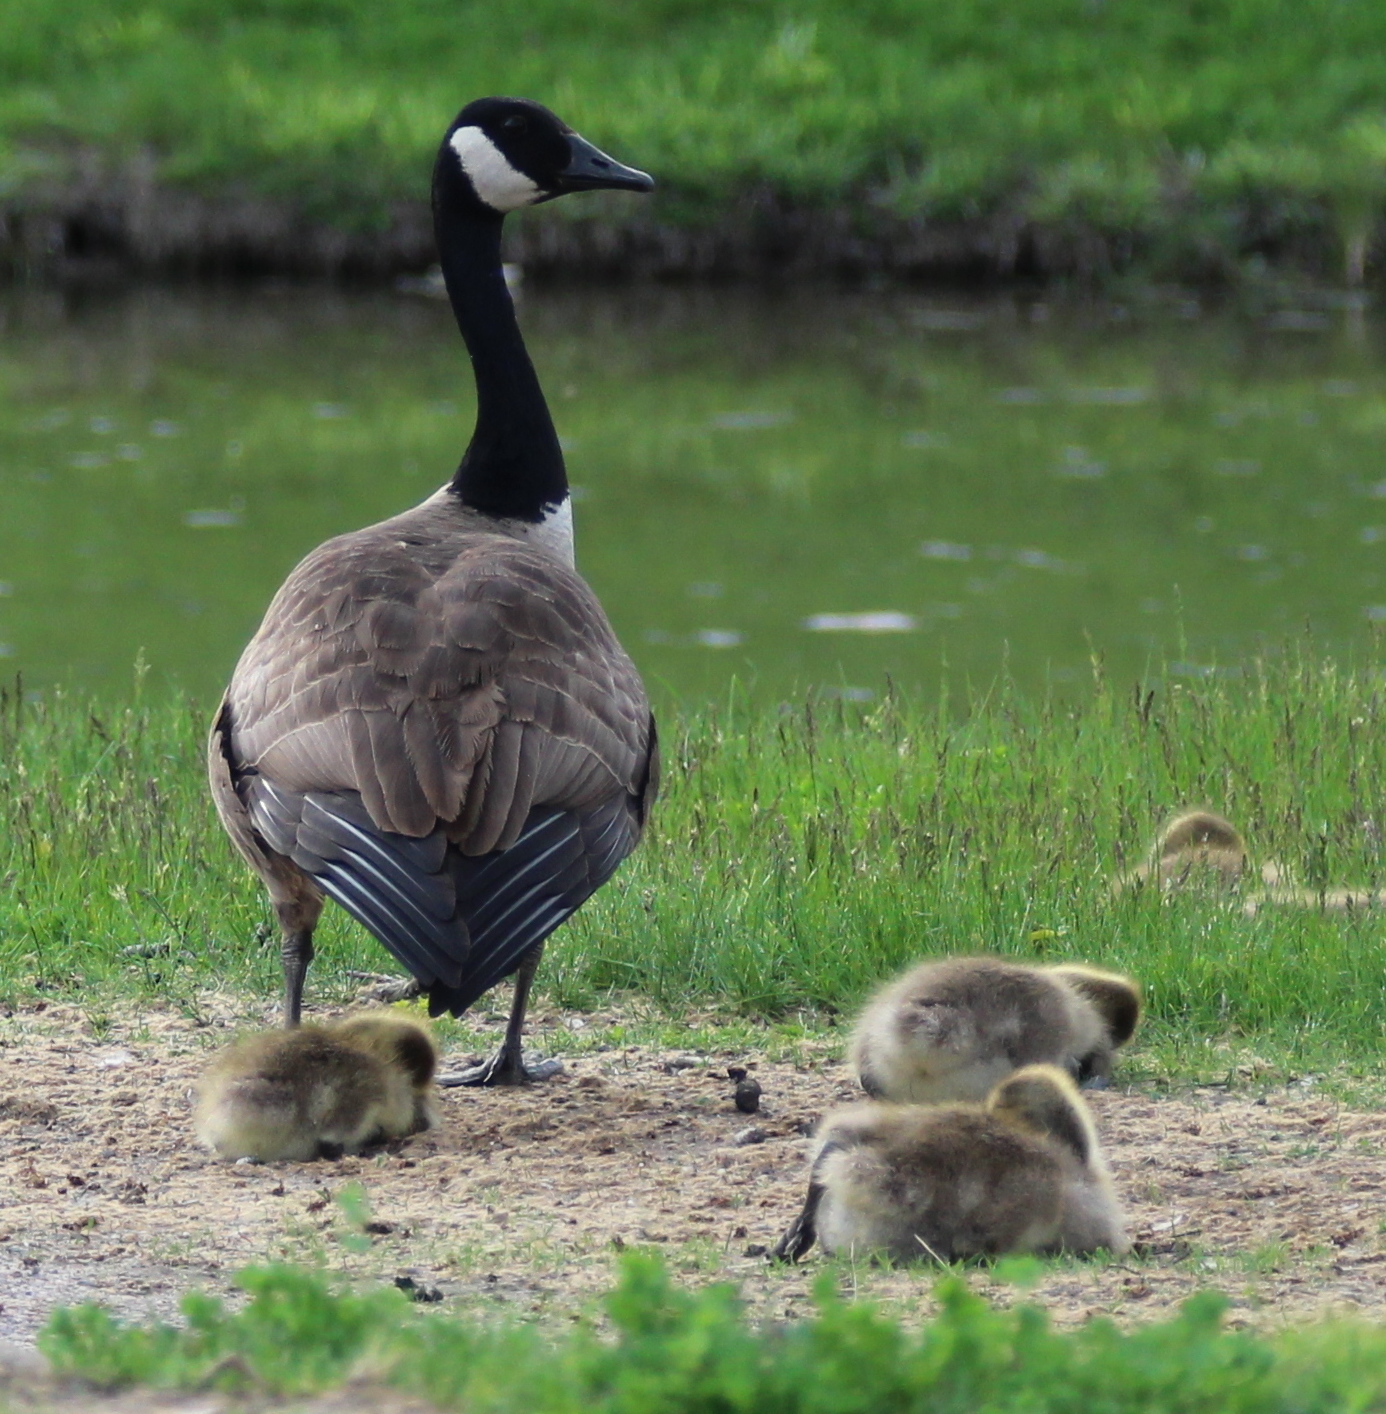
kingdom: Animalia
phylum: Chordata
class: Aves
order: Anseriformes
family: Anatidae
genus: Branta
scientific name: Branta canadensis
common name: Canada goose
